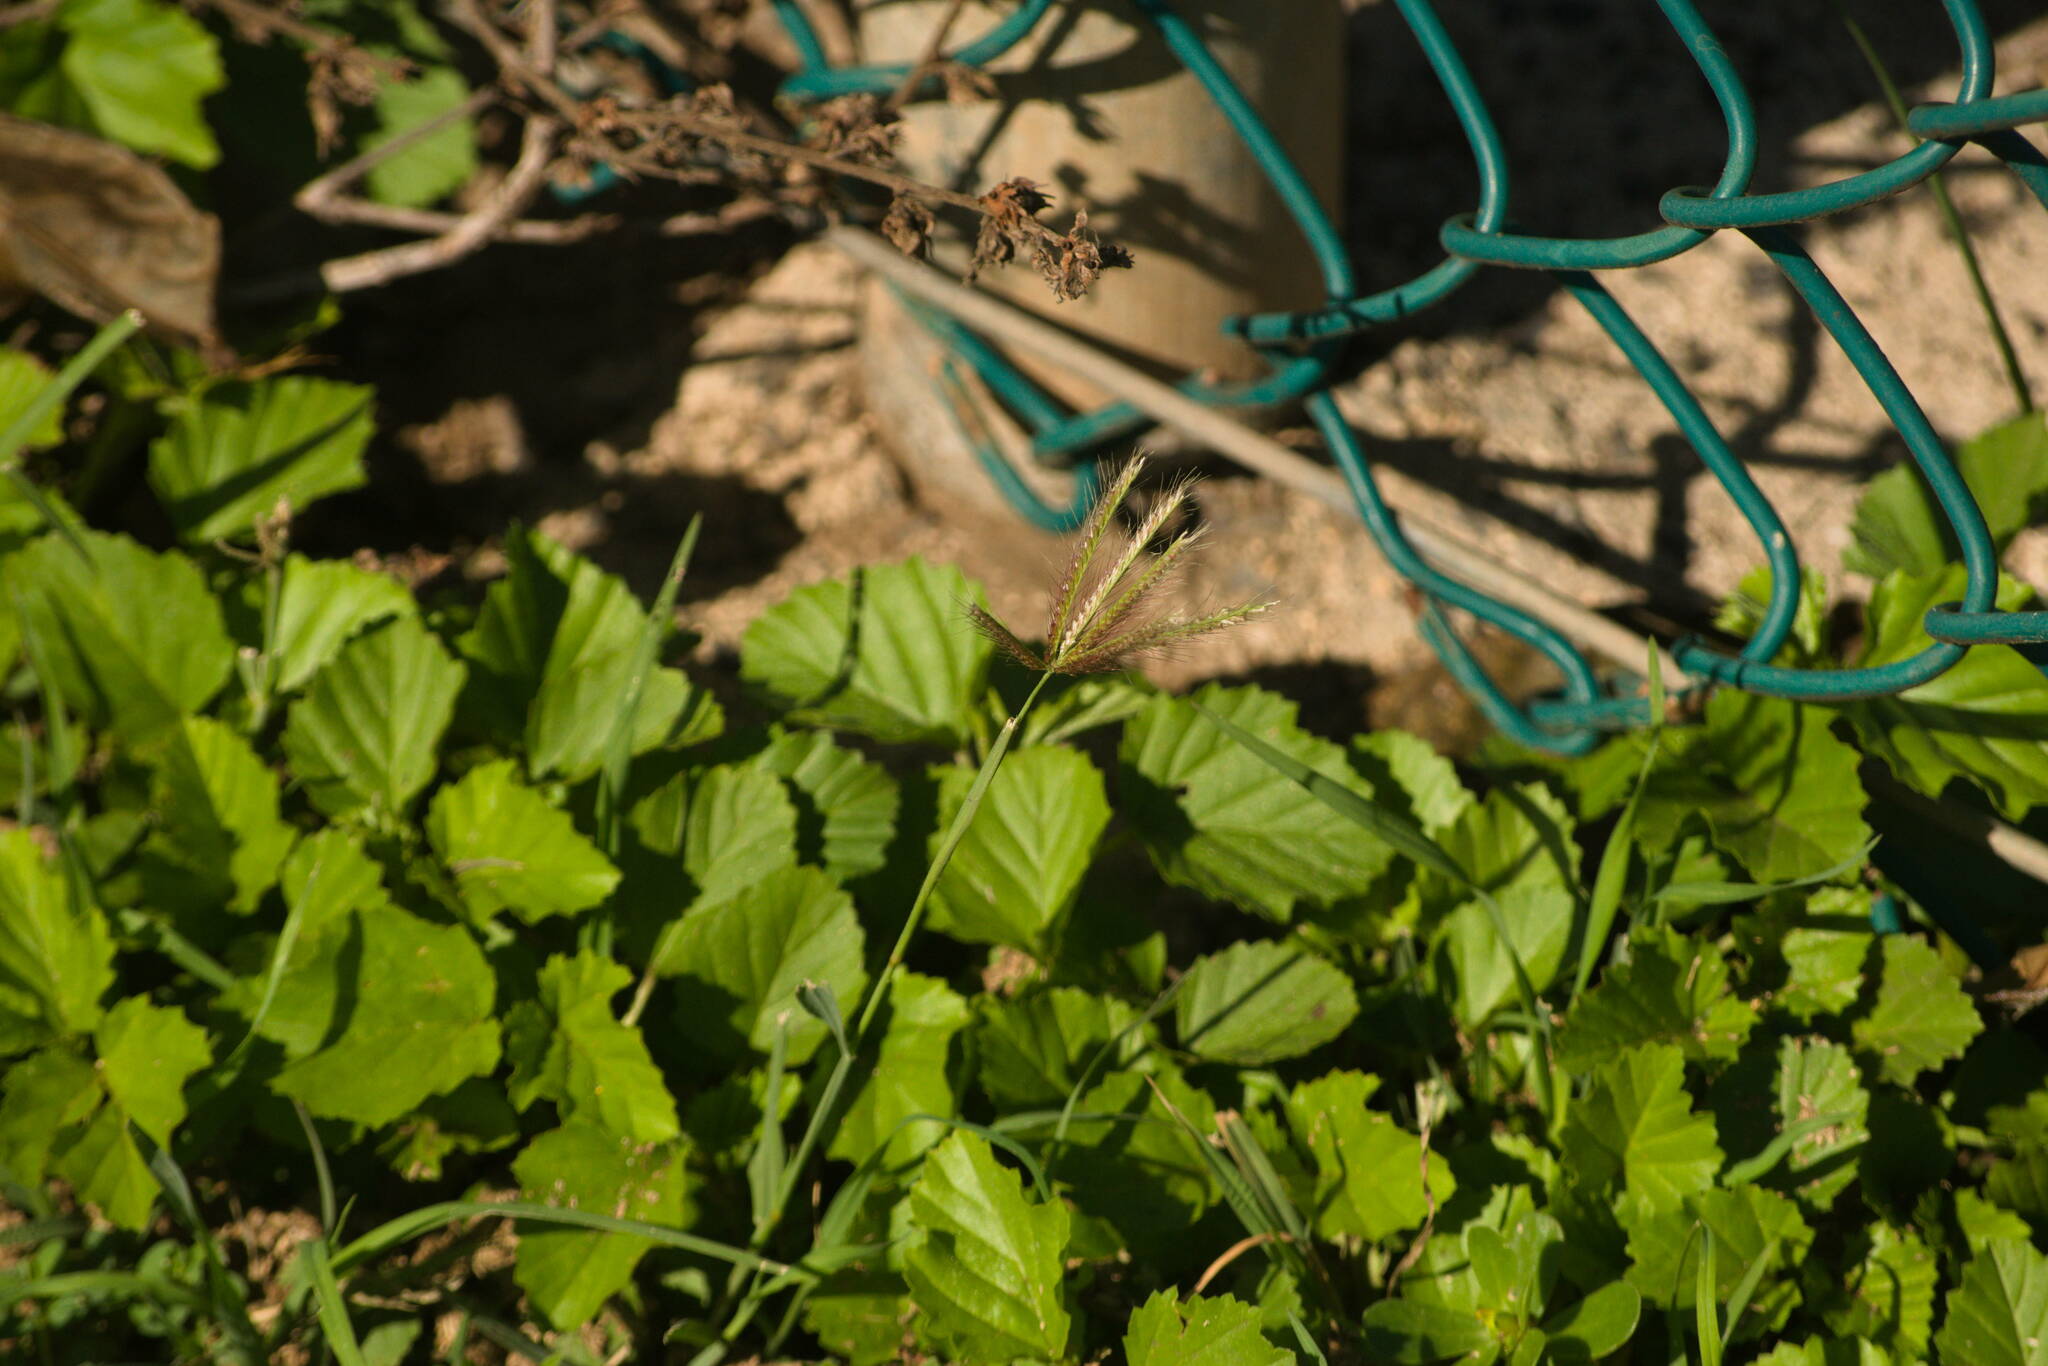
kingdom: Plantae
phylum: Tracheophyta
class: Liliopsida
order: Poales
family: Poaceae
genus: Chloris
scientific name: Chloris barbata
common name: Swollen fingergrass
